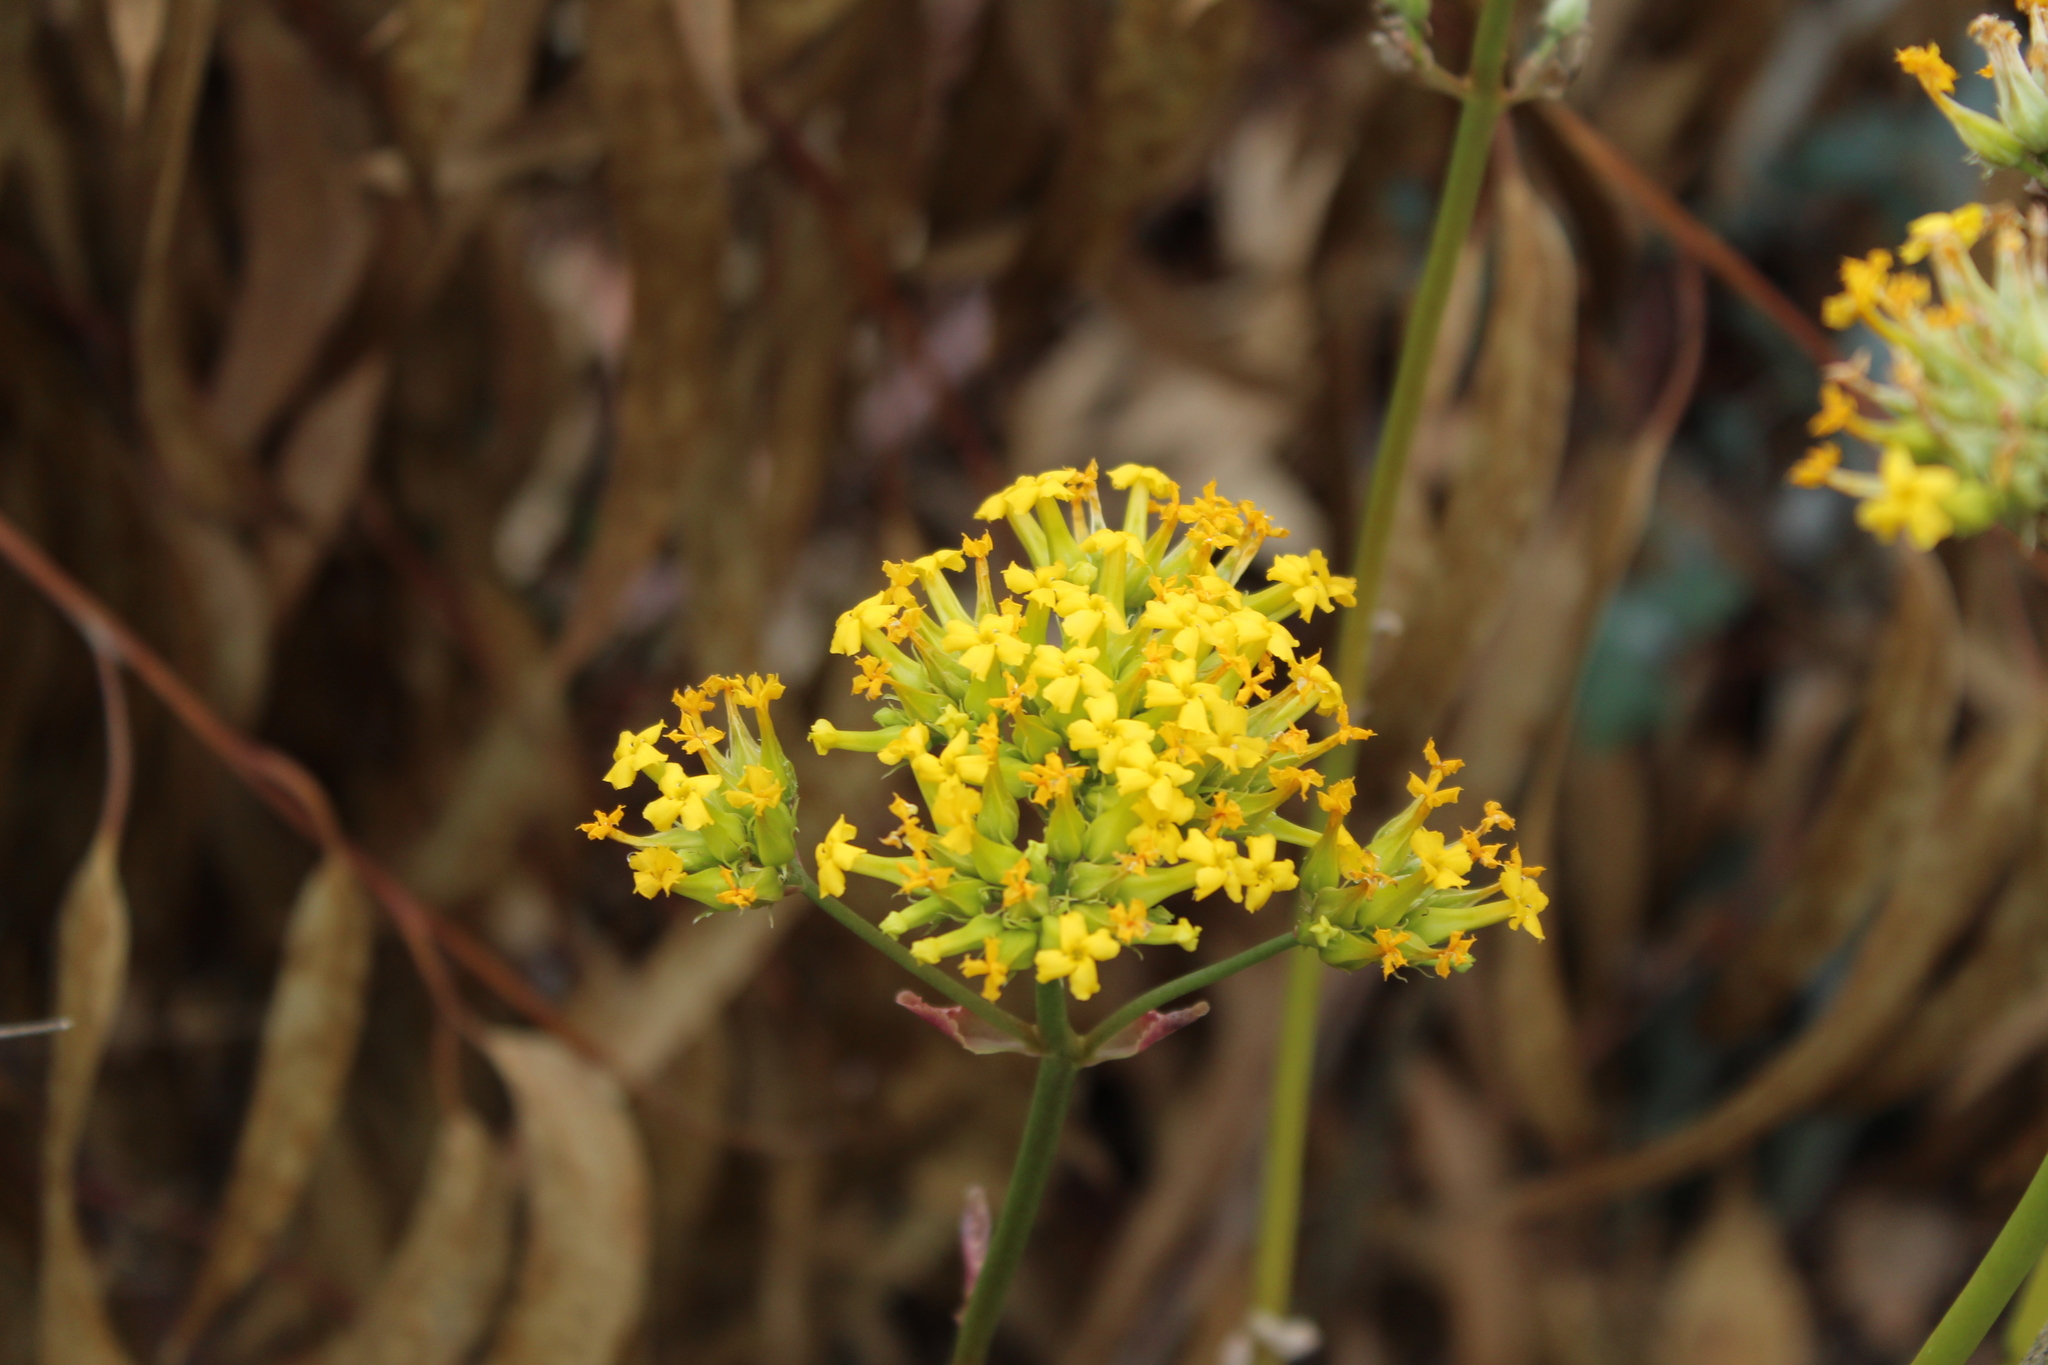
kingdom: Plantae
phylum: Tracheophyta
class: Magnoliopsida
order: Saxifragales
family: Crassulaceae
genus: Kalanchoe
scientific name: Kalanchoe densiflora
